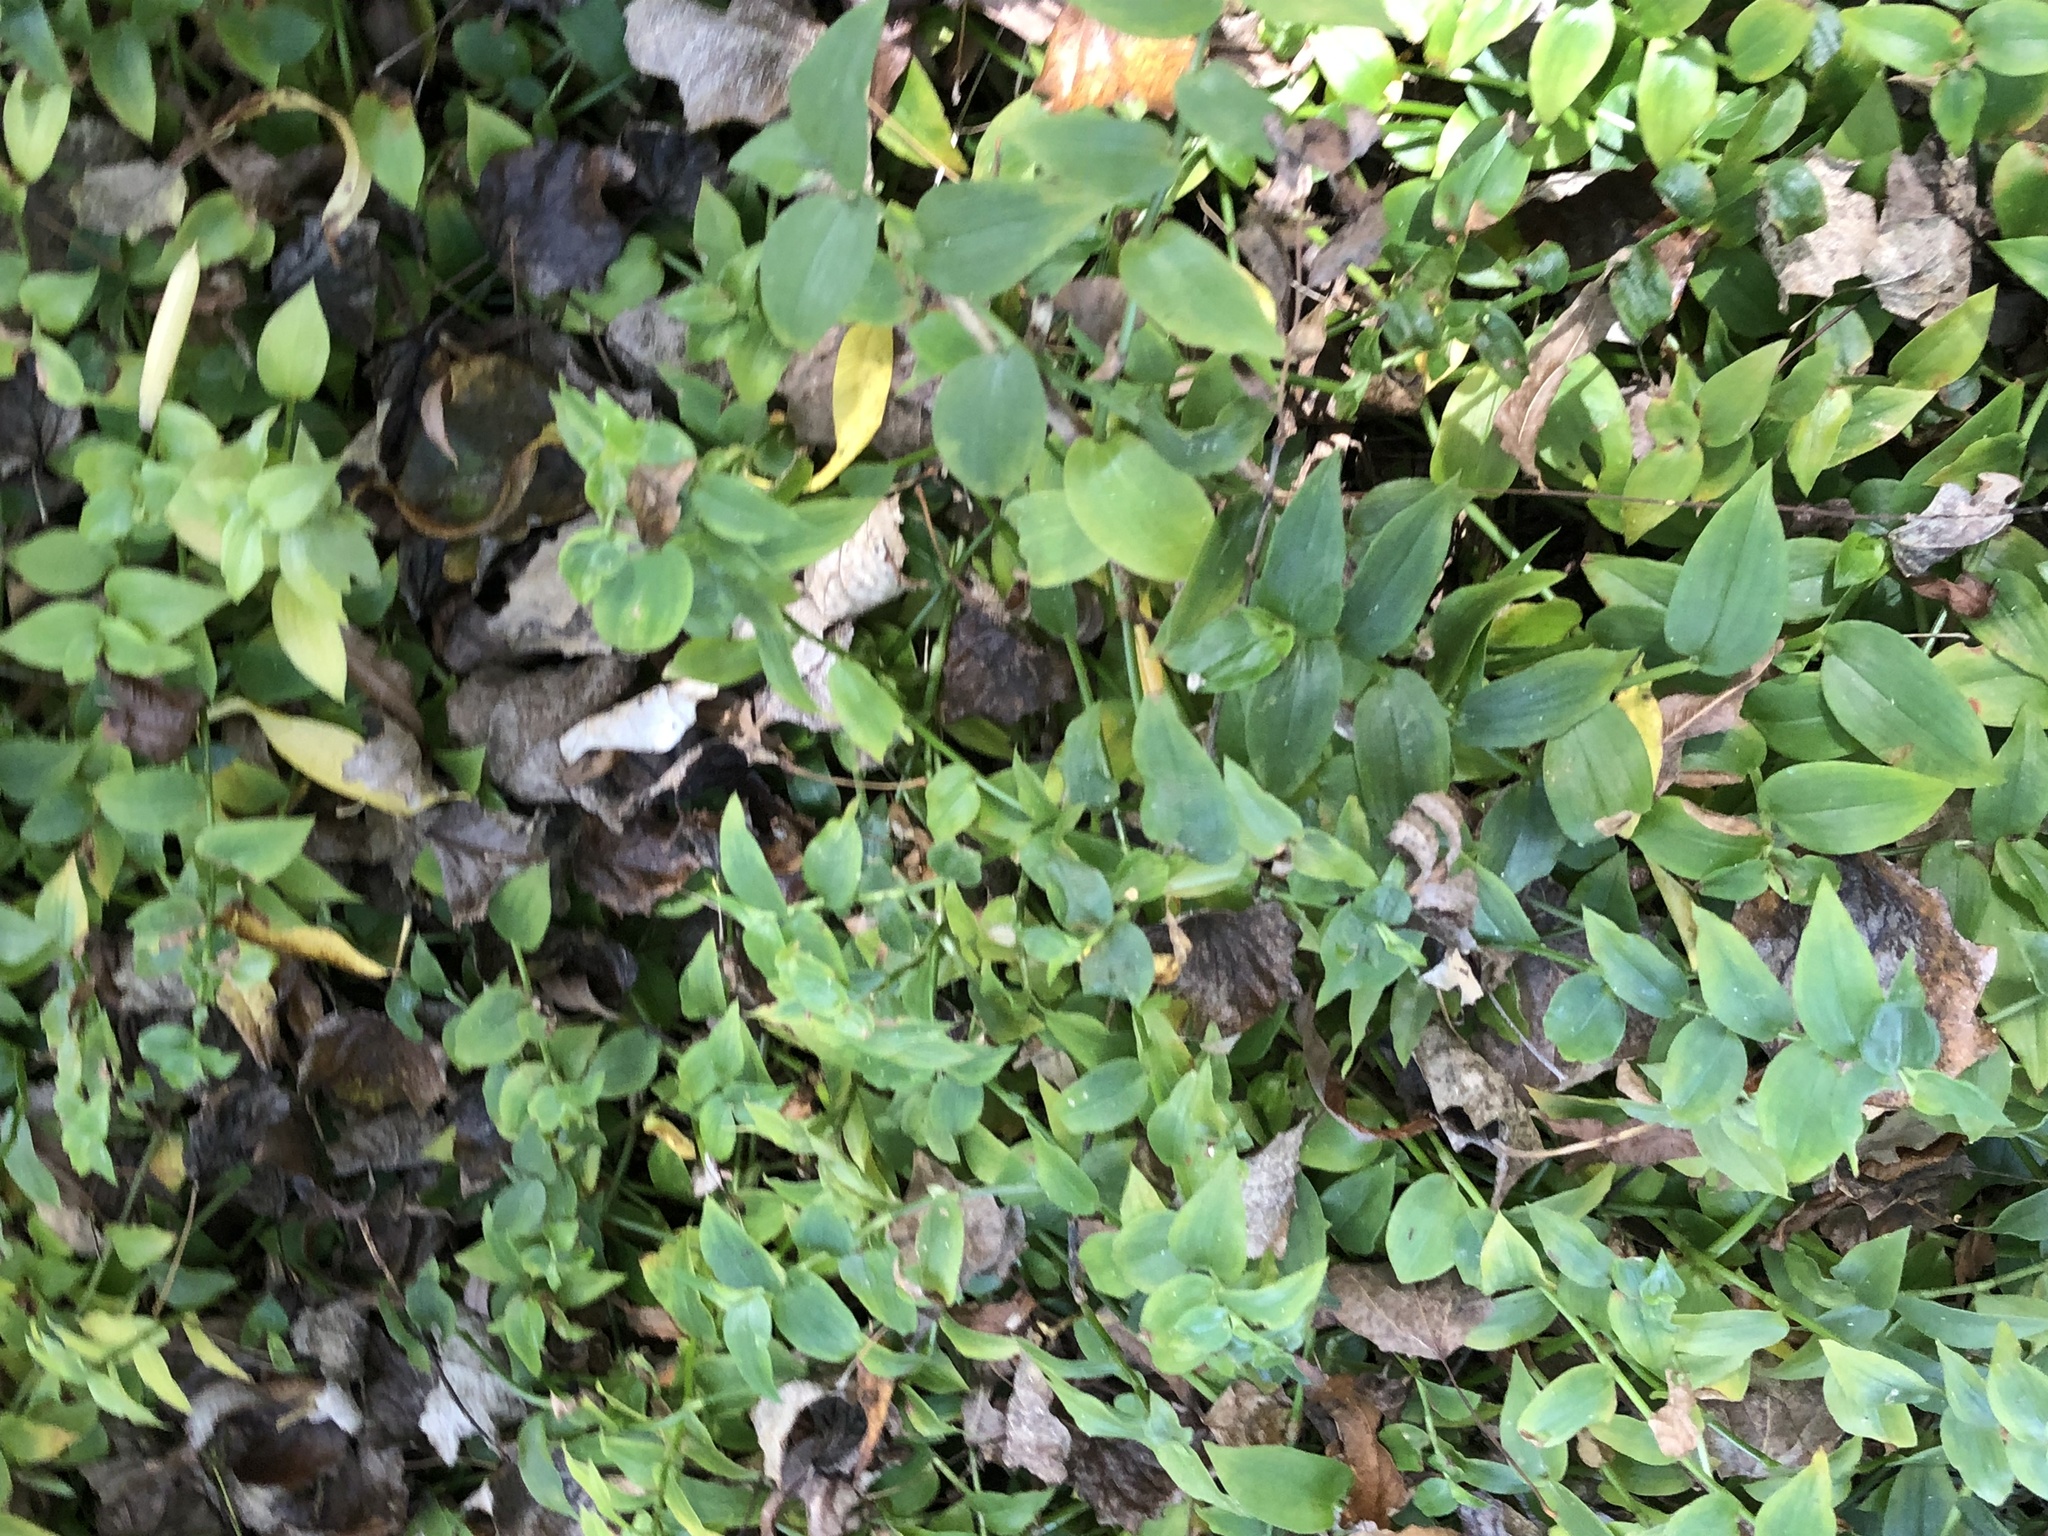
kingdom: Plantae
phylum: Tracheophyta
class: Liliopsida
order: Commelinales
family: Commelinaceae
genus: Tradescantia
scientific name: Tradescantia fluminensis
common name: Wandering-jew
